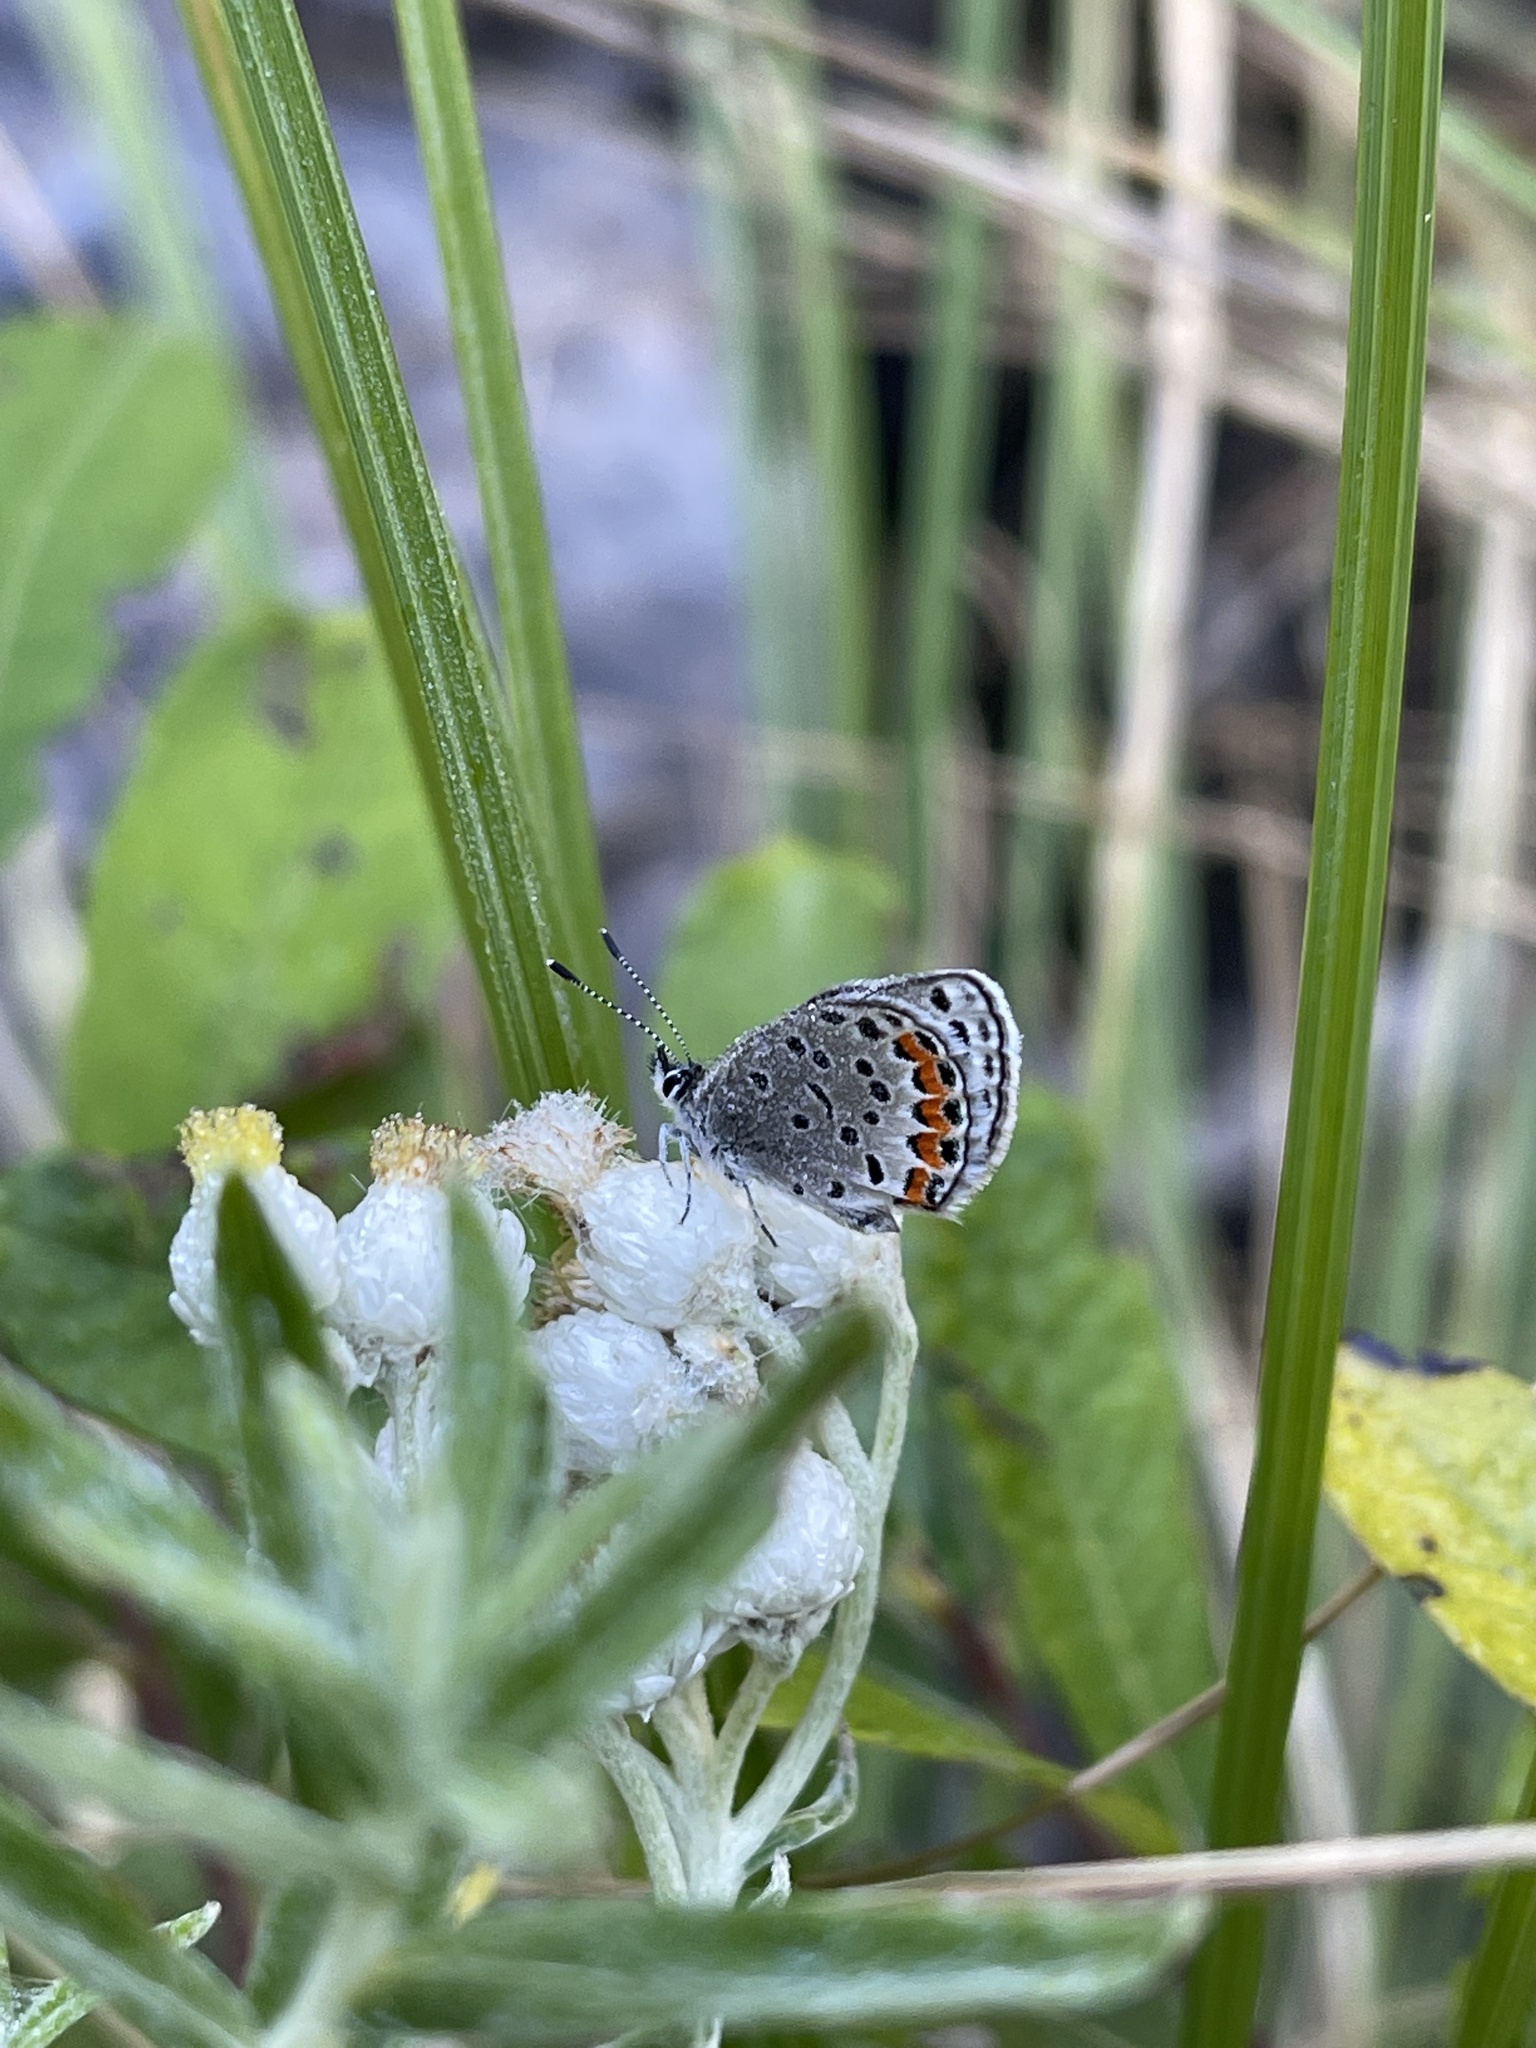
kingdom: Animalia
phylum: Arthropoda
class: Insecta
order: Lepidoptera
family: Lycaenidae
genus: Icaricia
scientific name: Icaricia acmon
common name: Acmon blue
